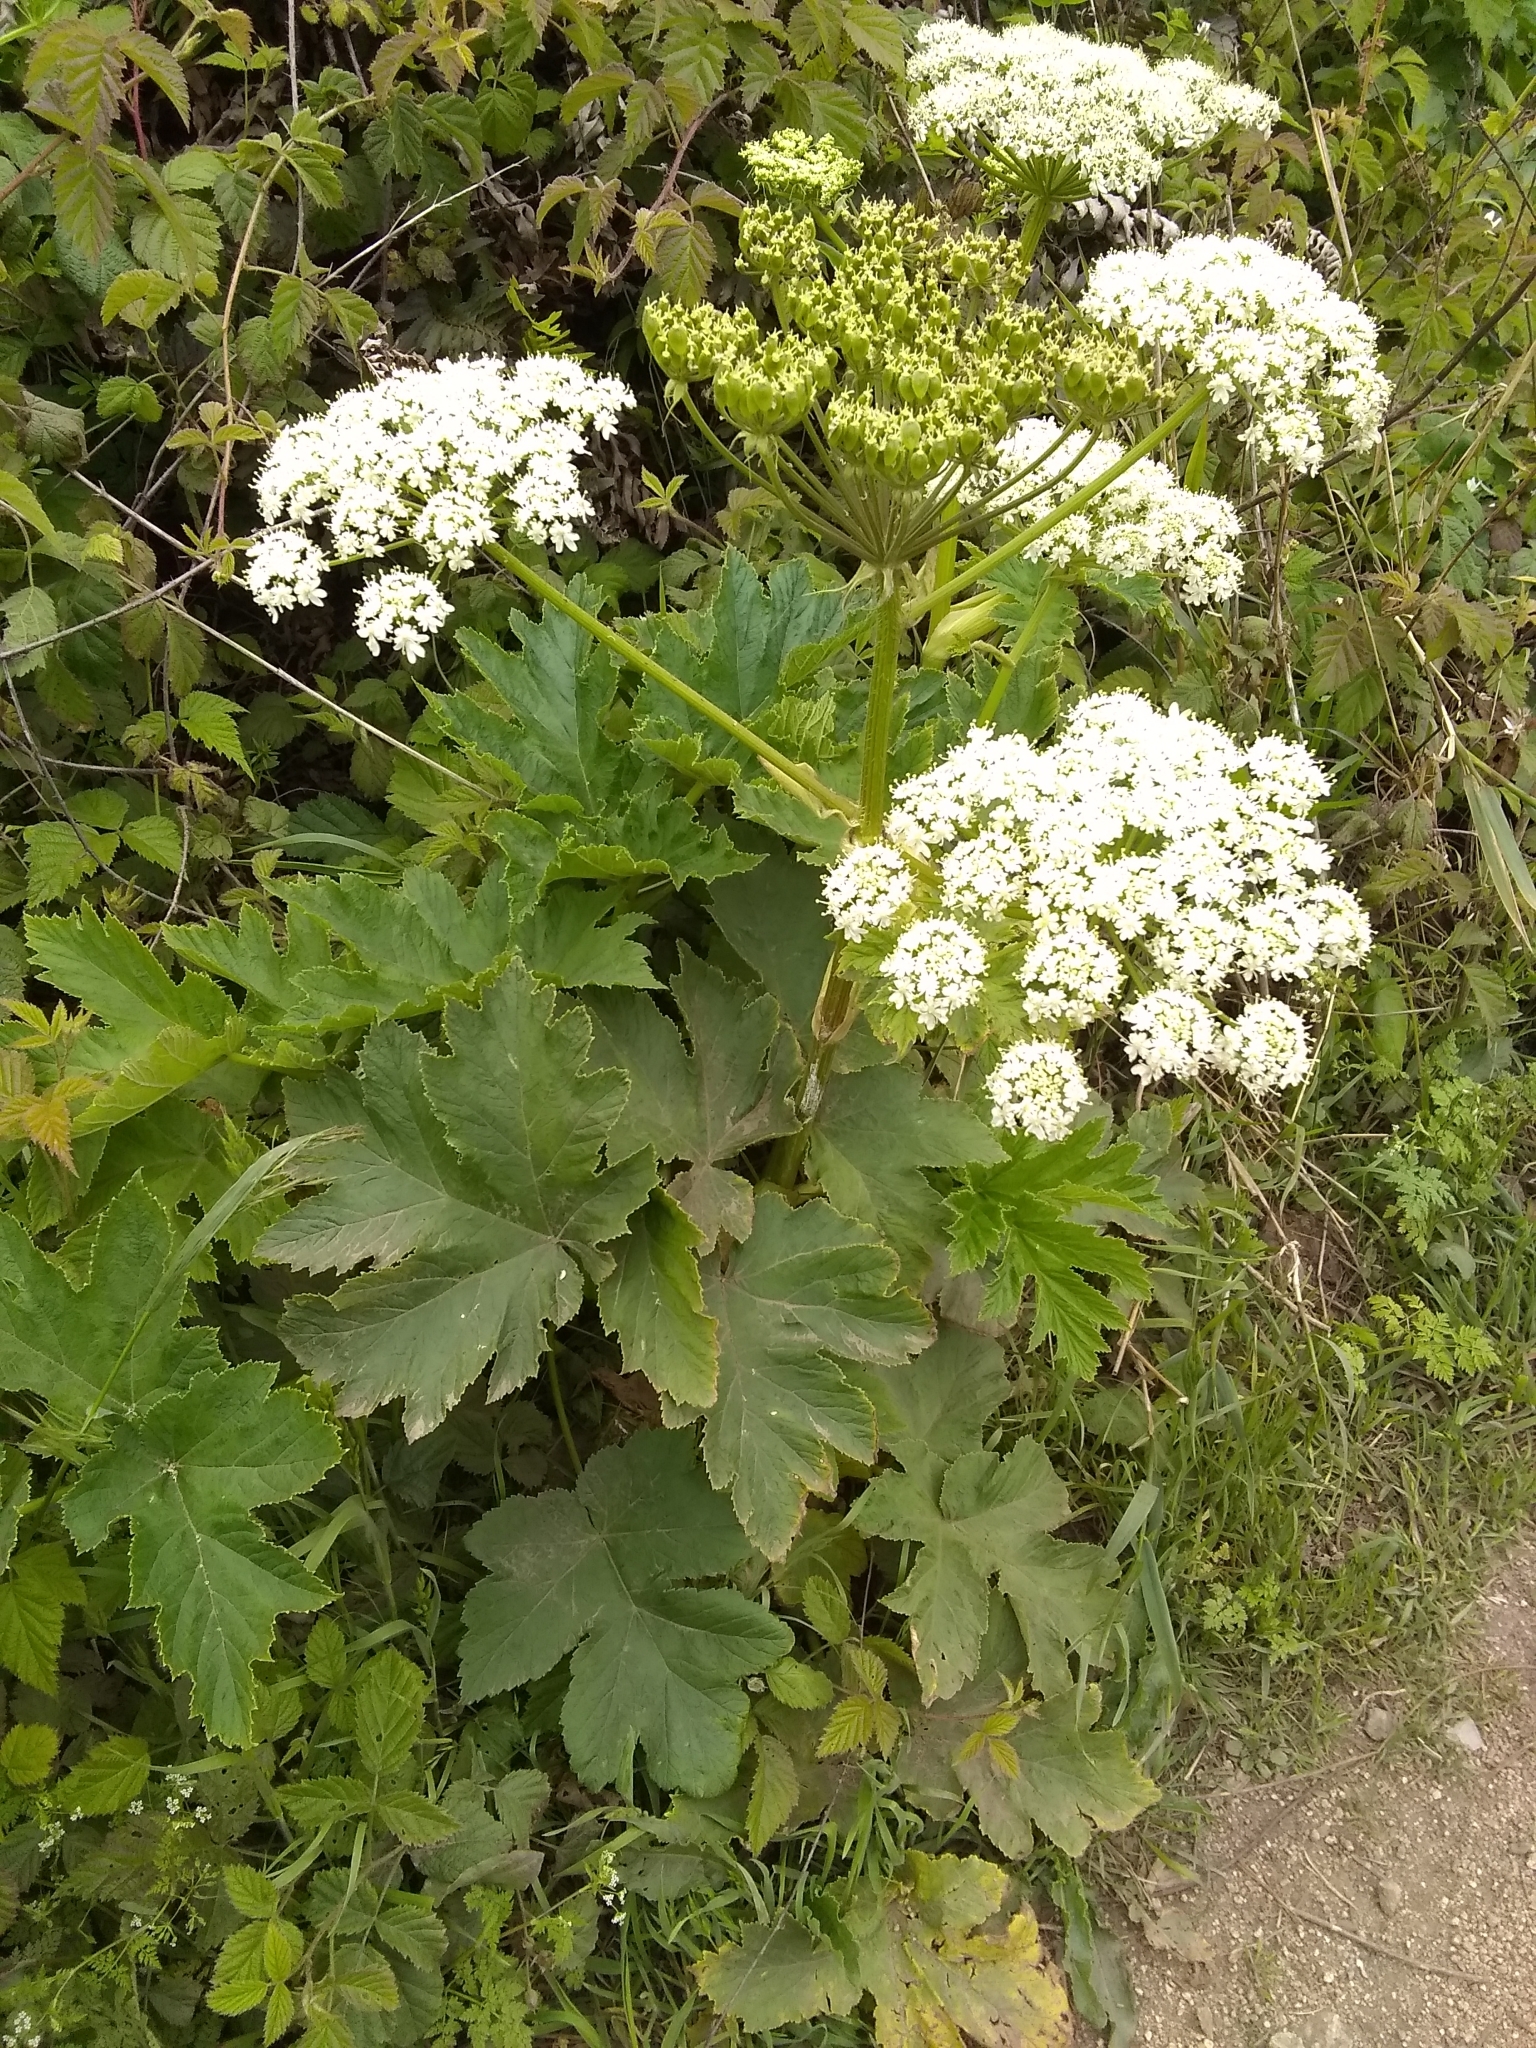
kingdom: Plantae
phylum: Tracheophyta
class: Magnoliopsida
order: Apiales
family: Apiaceae
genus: Heracleum
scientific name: Heracleum maximum
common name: American cow parsnip
